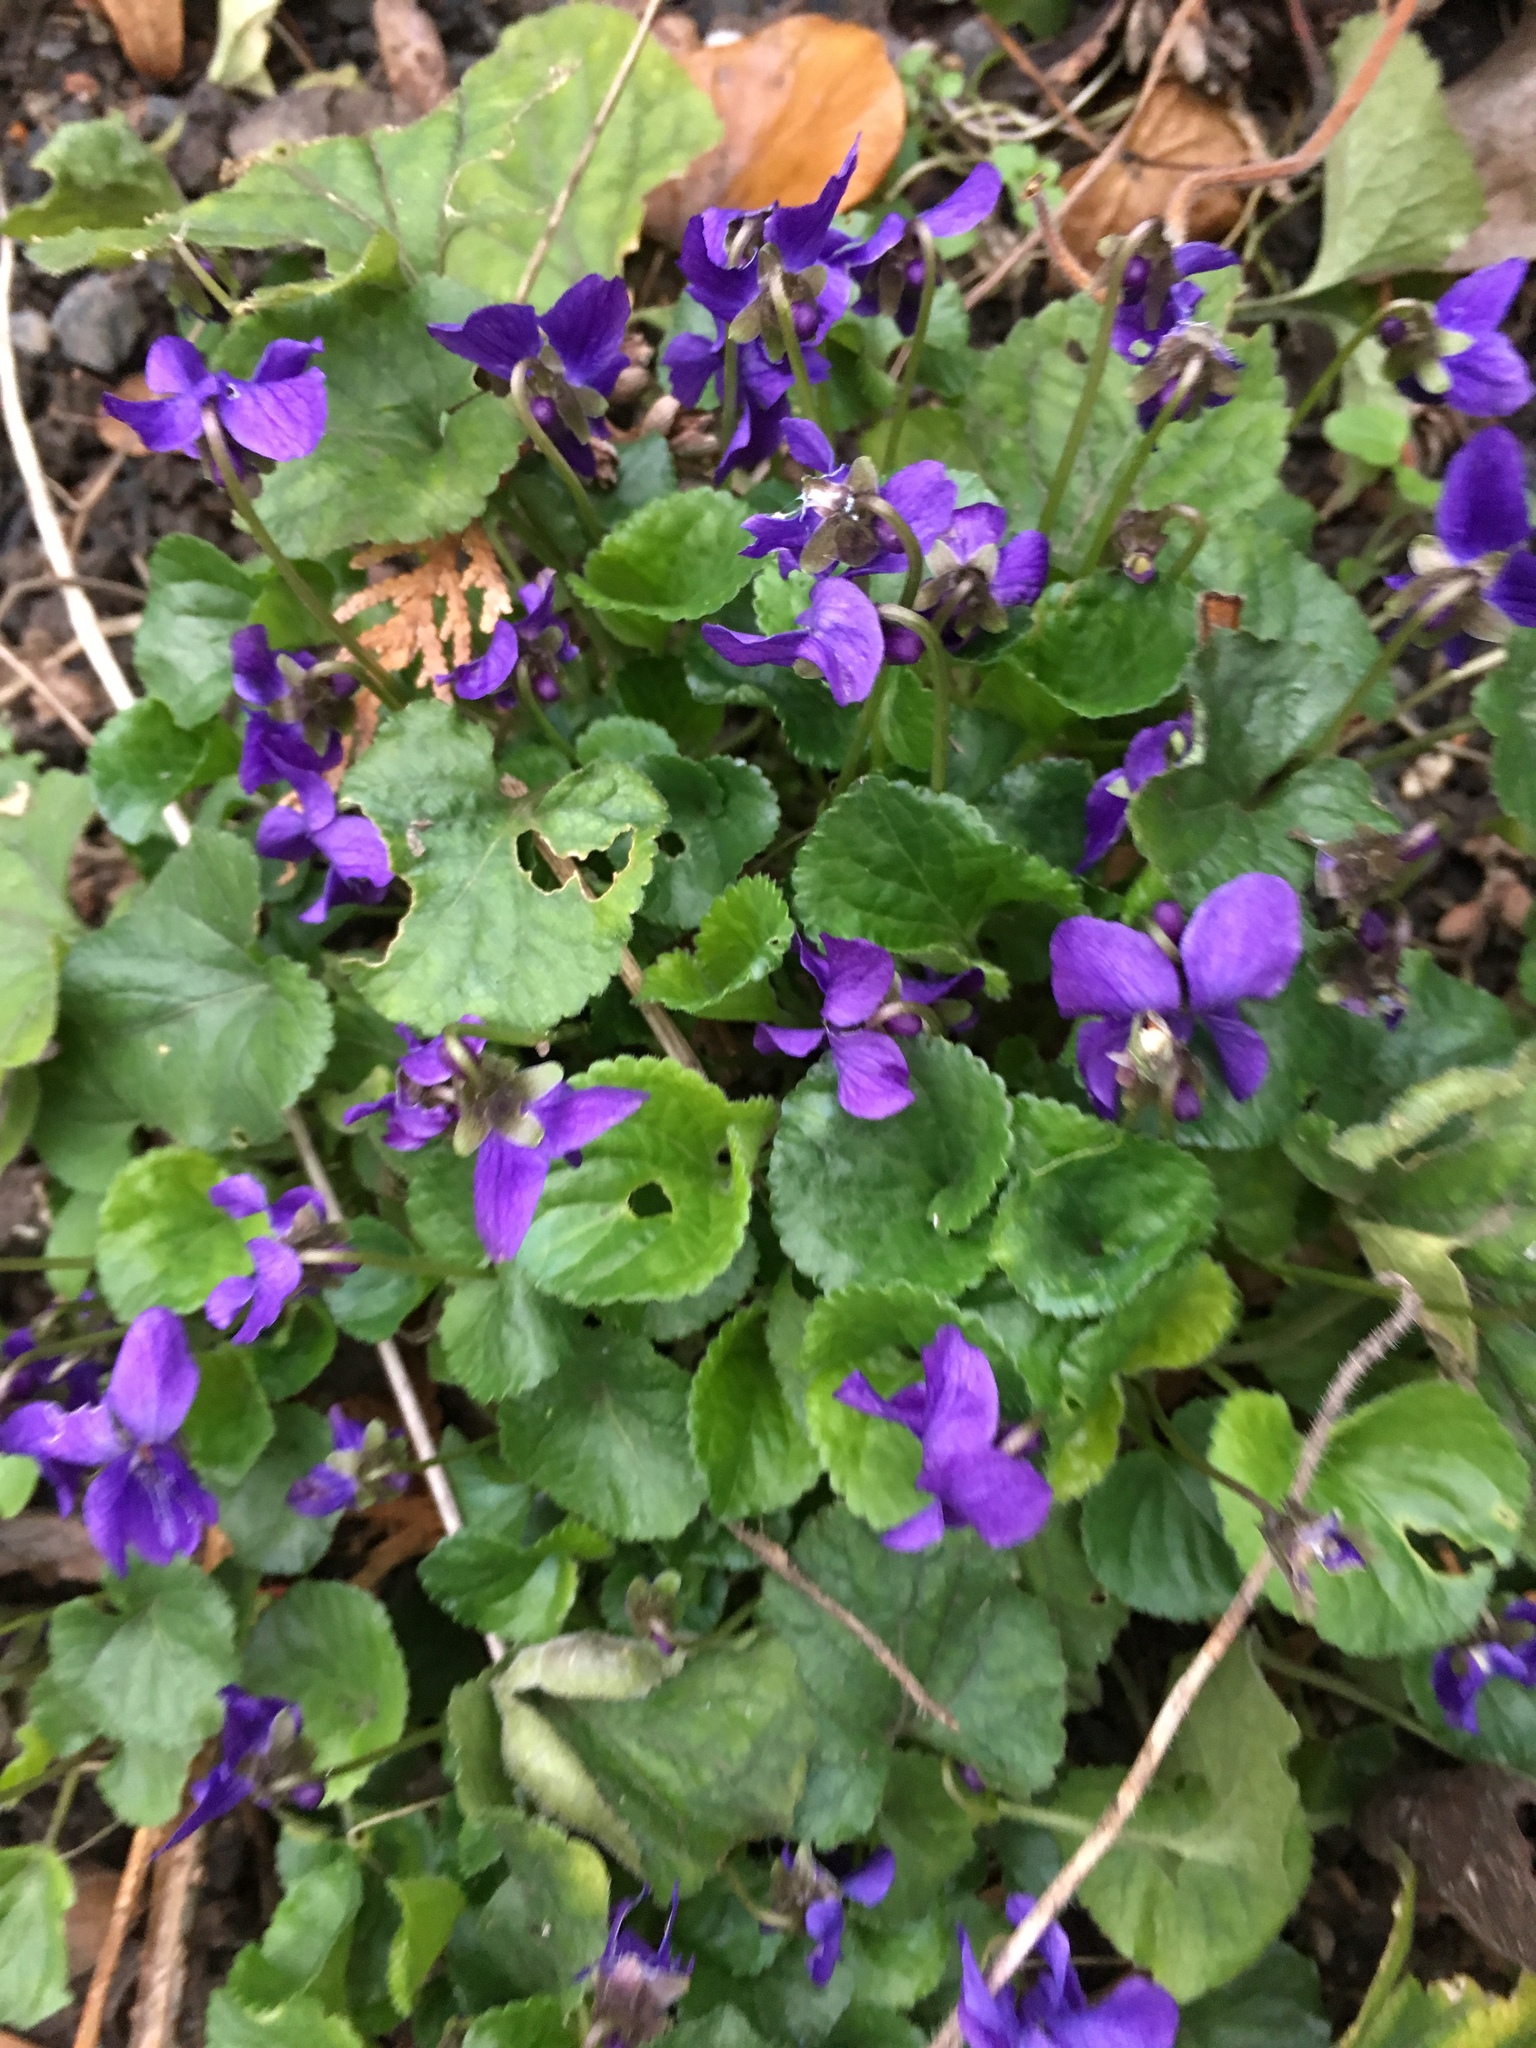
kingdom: Plantae
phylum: Tracheophyta
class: Magnoliopsida
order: Malpighiales
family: Violaceae
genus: Viola
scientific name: Viola odorata
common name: Sweet violet
